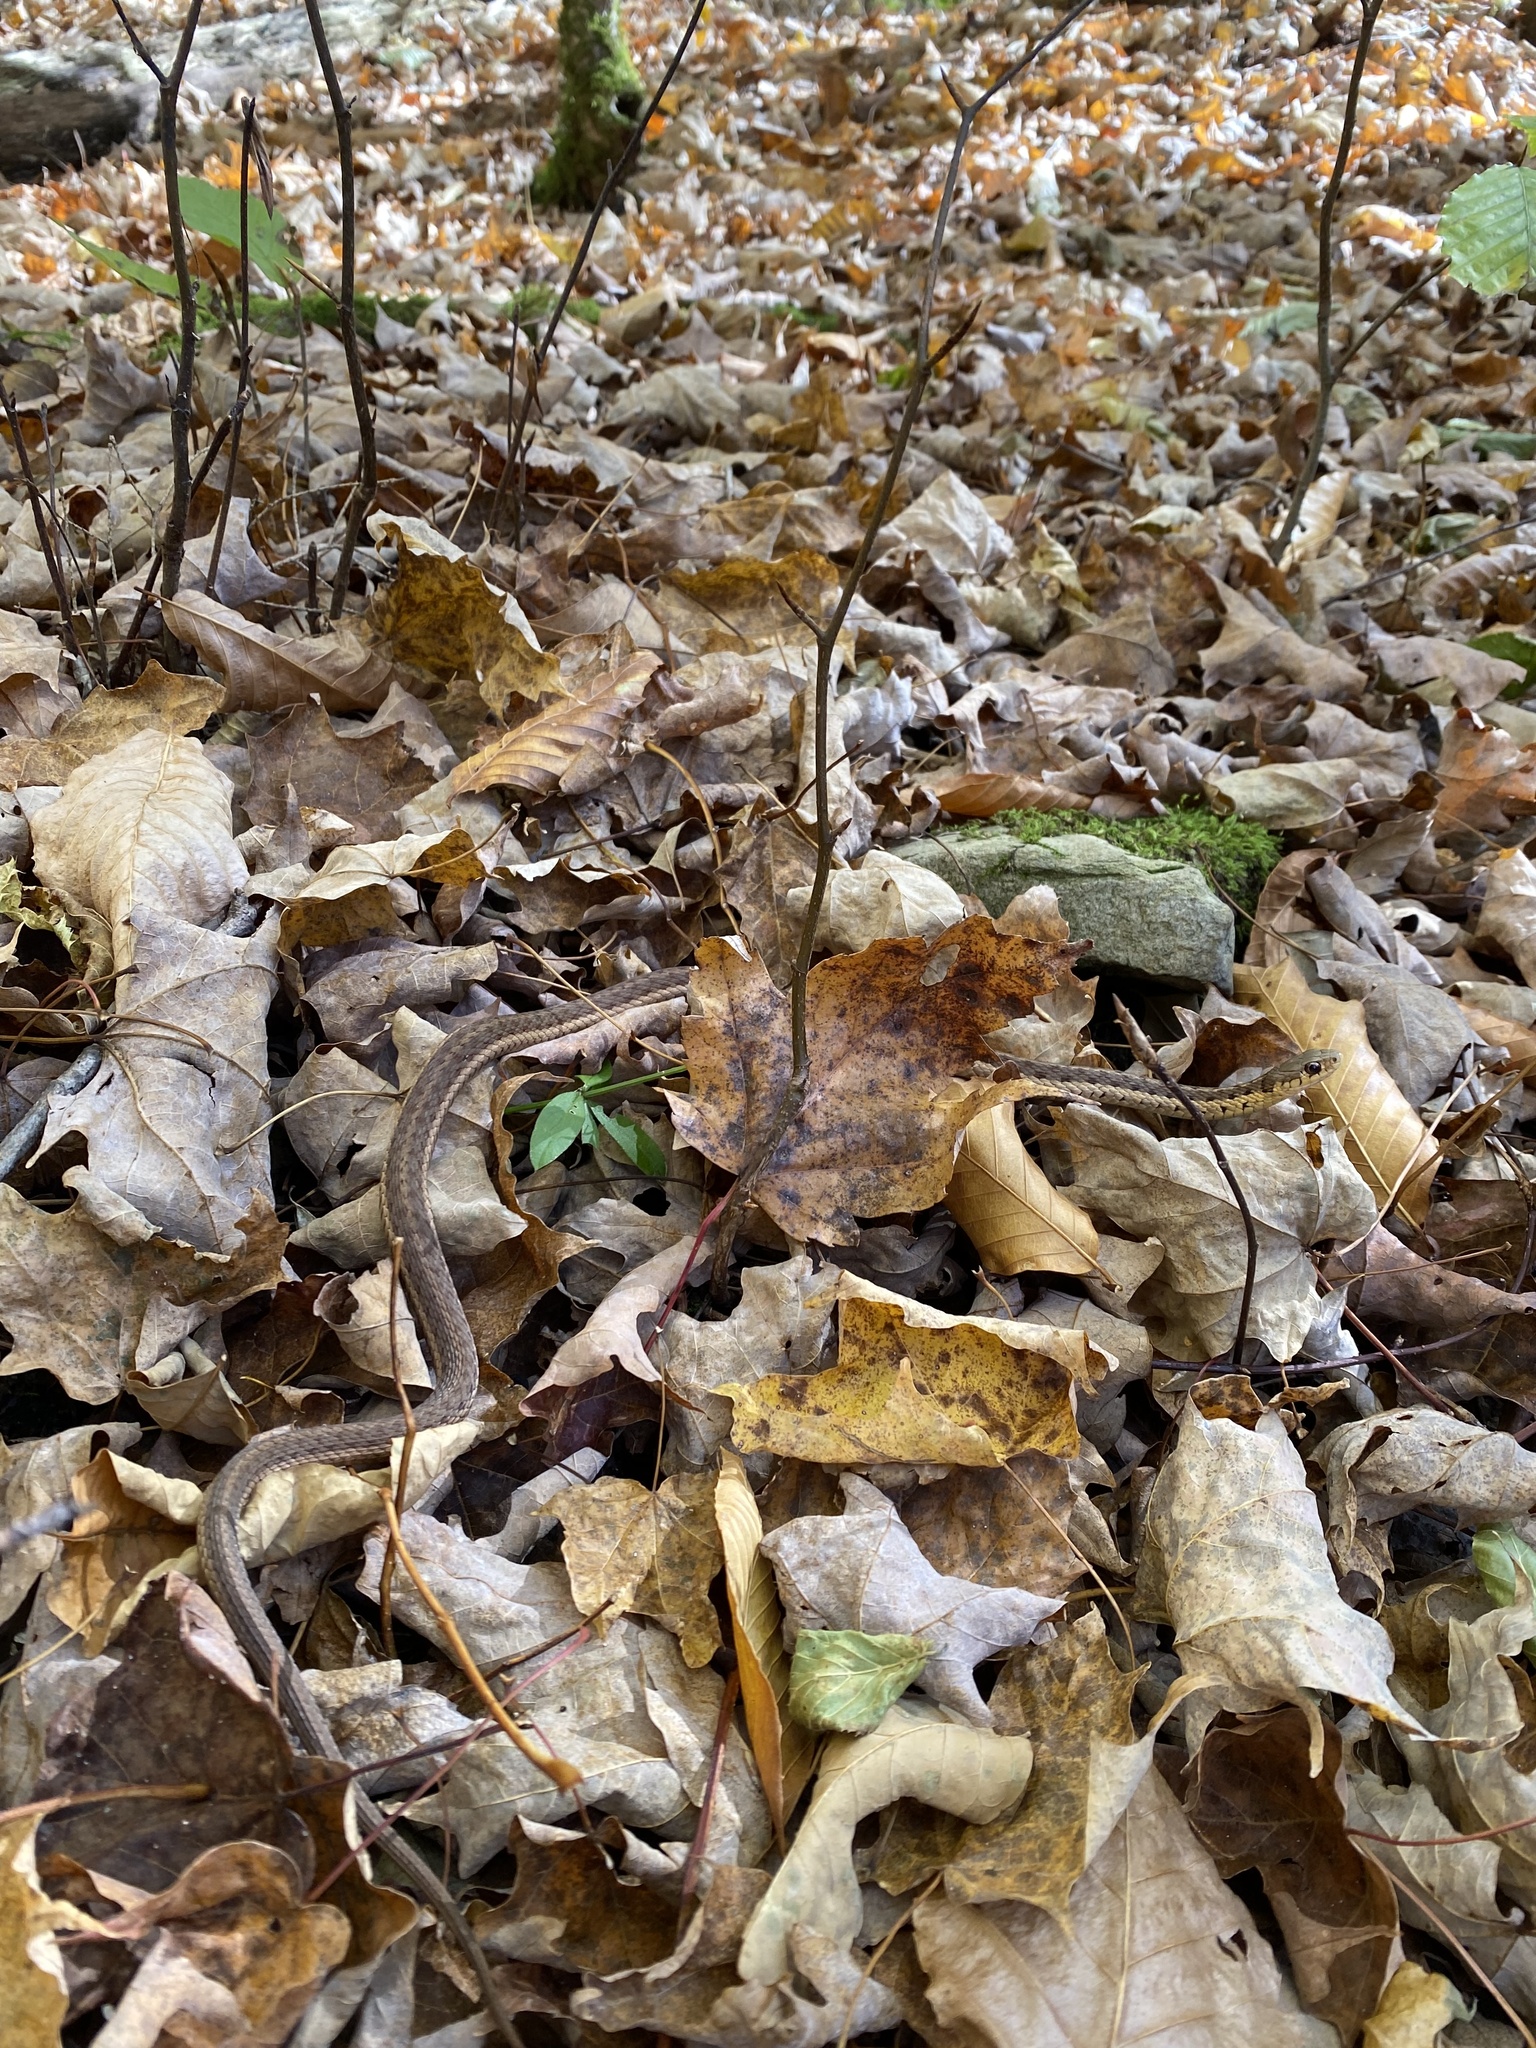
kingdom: Animalia
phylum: Chordata
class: Squamata
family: Colubridae
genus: Thamnophis
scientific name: Thamnophis sirtalis
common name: Common garter snake
